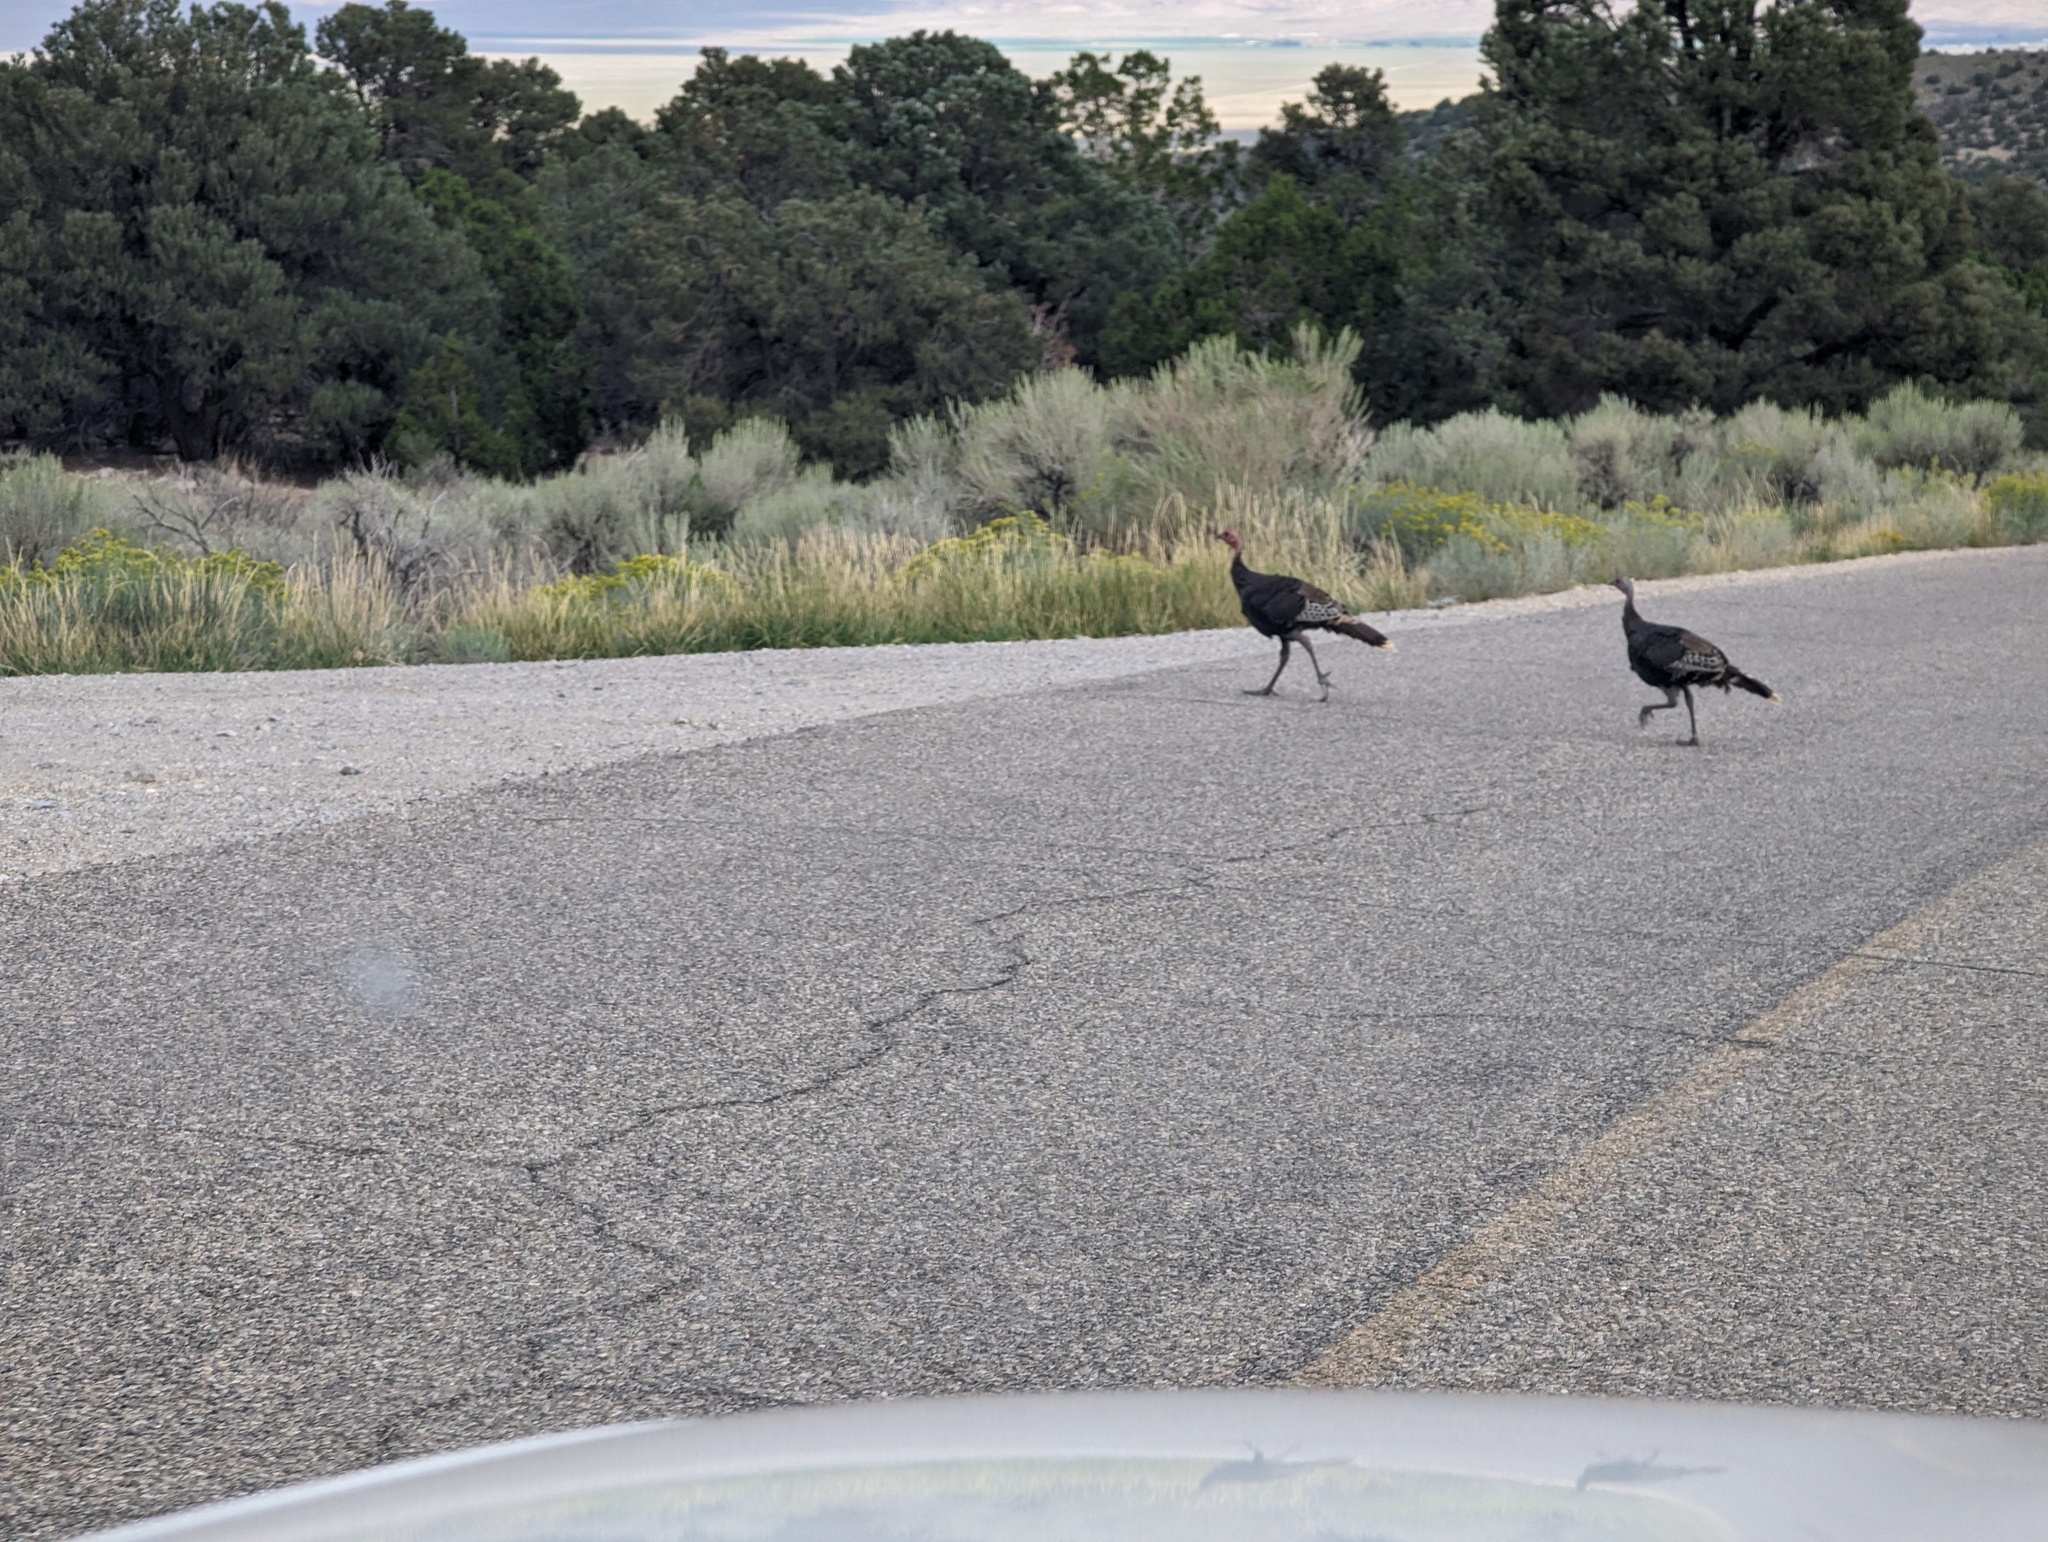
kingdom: Animalia
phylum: Chordata
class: Aves
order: Galliformes
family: Phasianidae
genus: Meleagris
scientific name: Meleagris gallopavo
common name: Wild turkey
